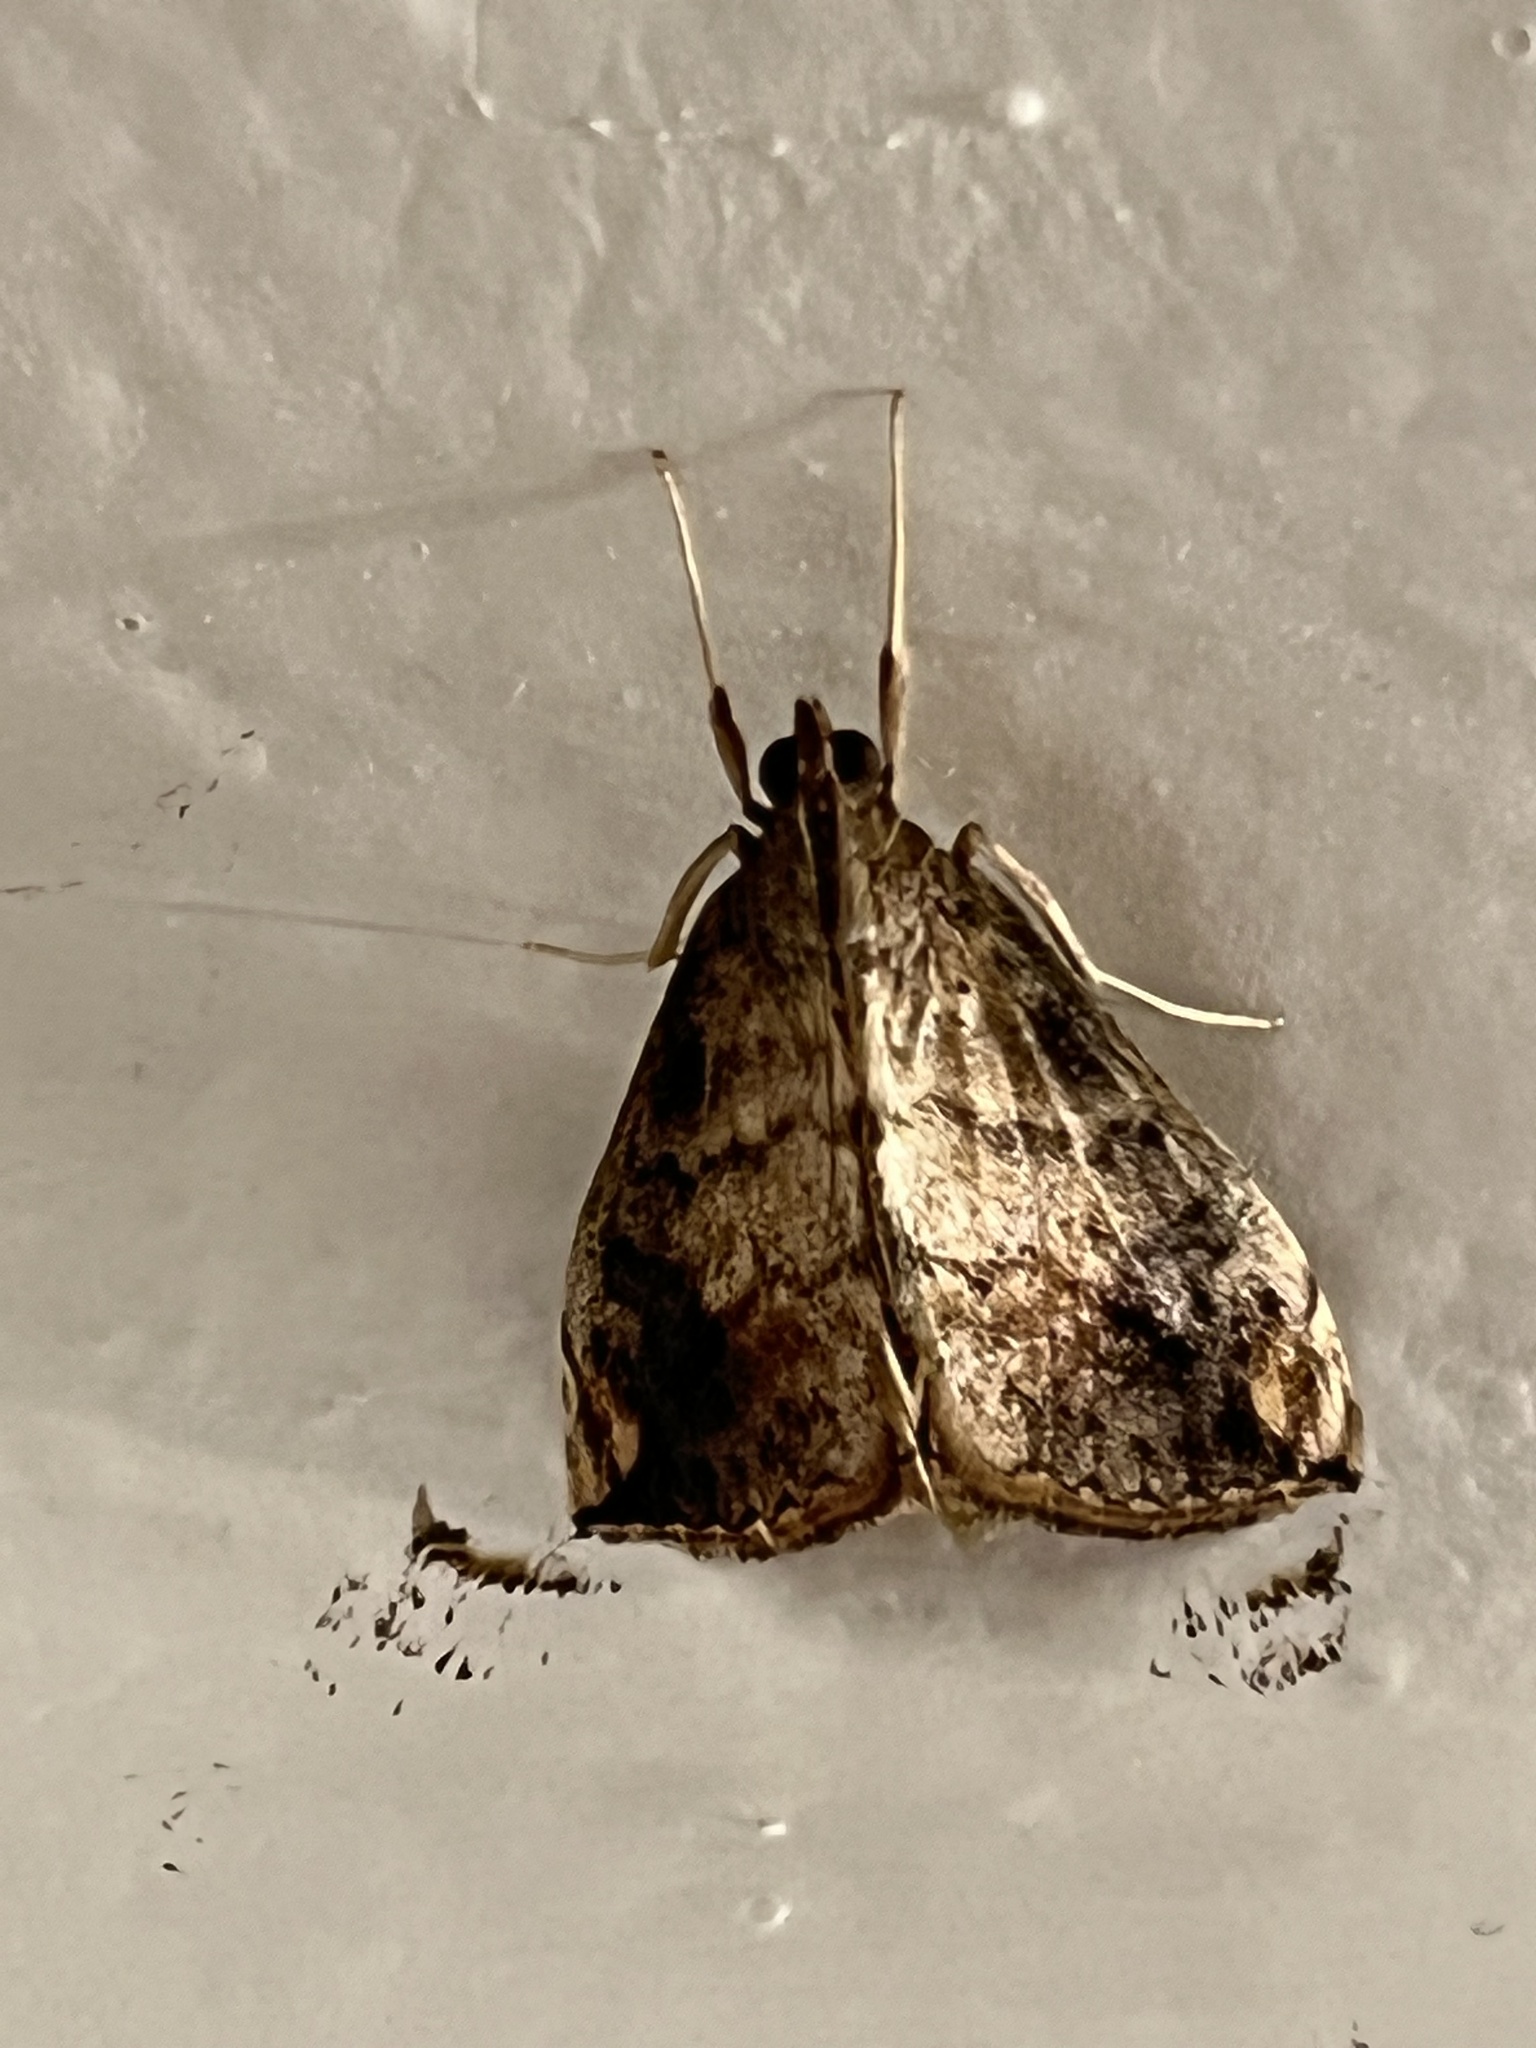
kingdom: Animalia
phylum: Arthropoda
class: Insecta
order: Lepidoptera
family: Crambidae
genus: Evergestis
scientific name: Evergestis rimosalis
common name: Cross-striped cabbageworm moth
